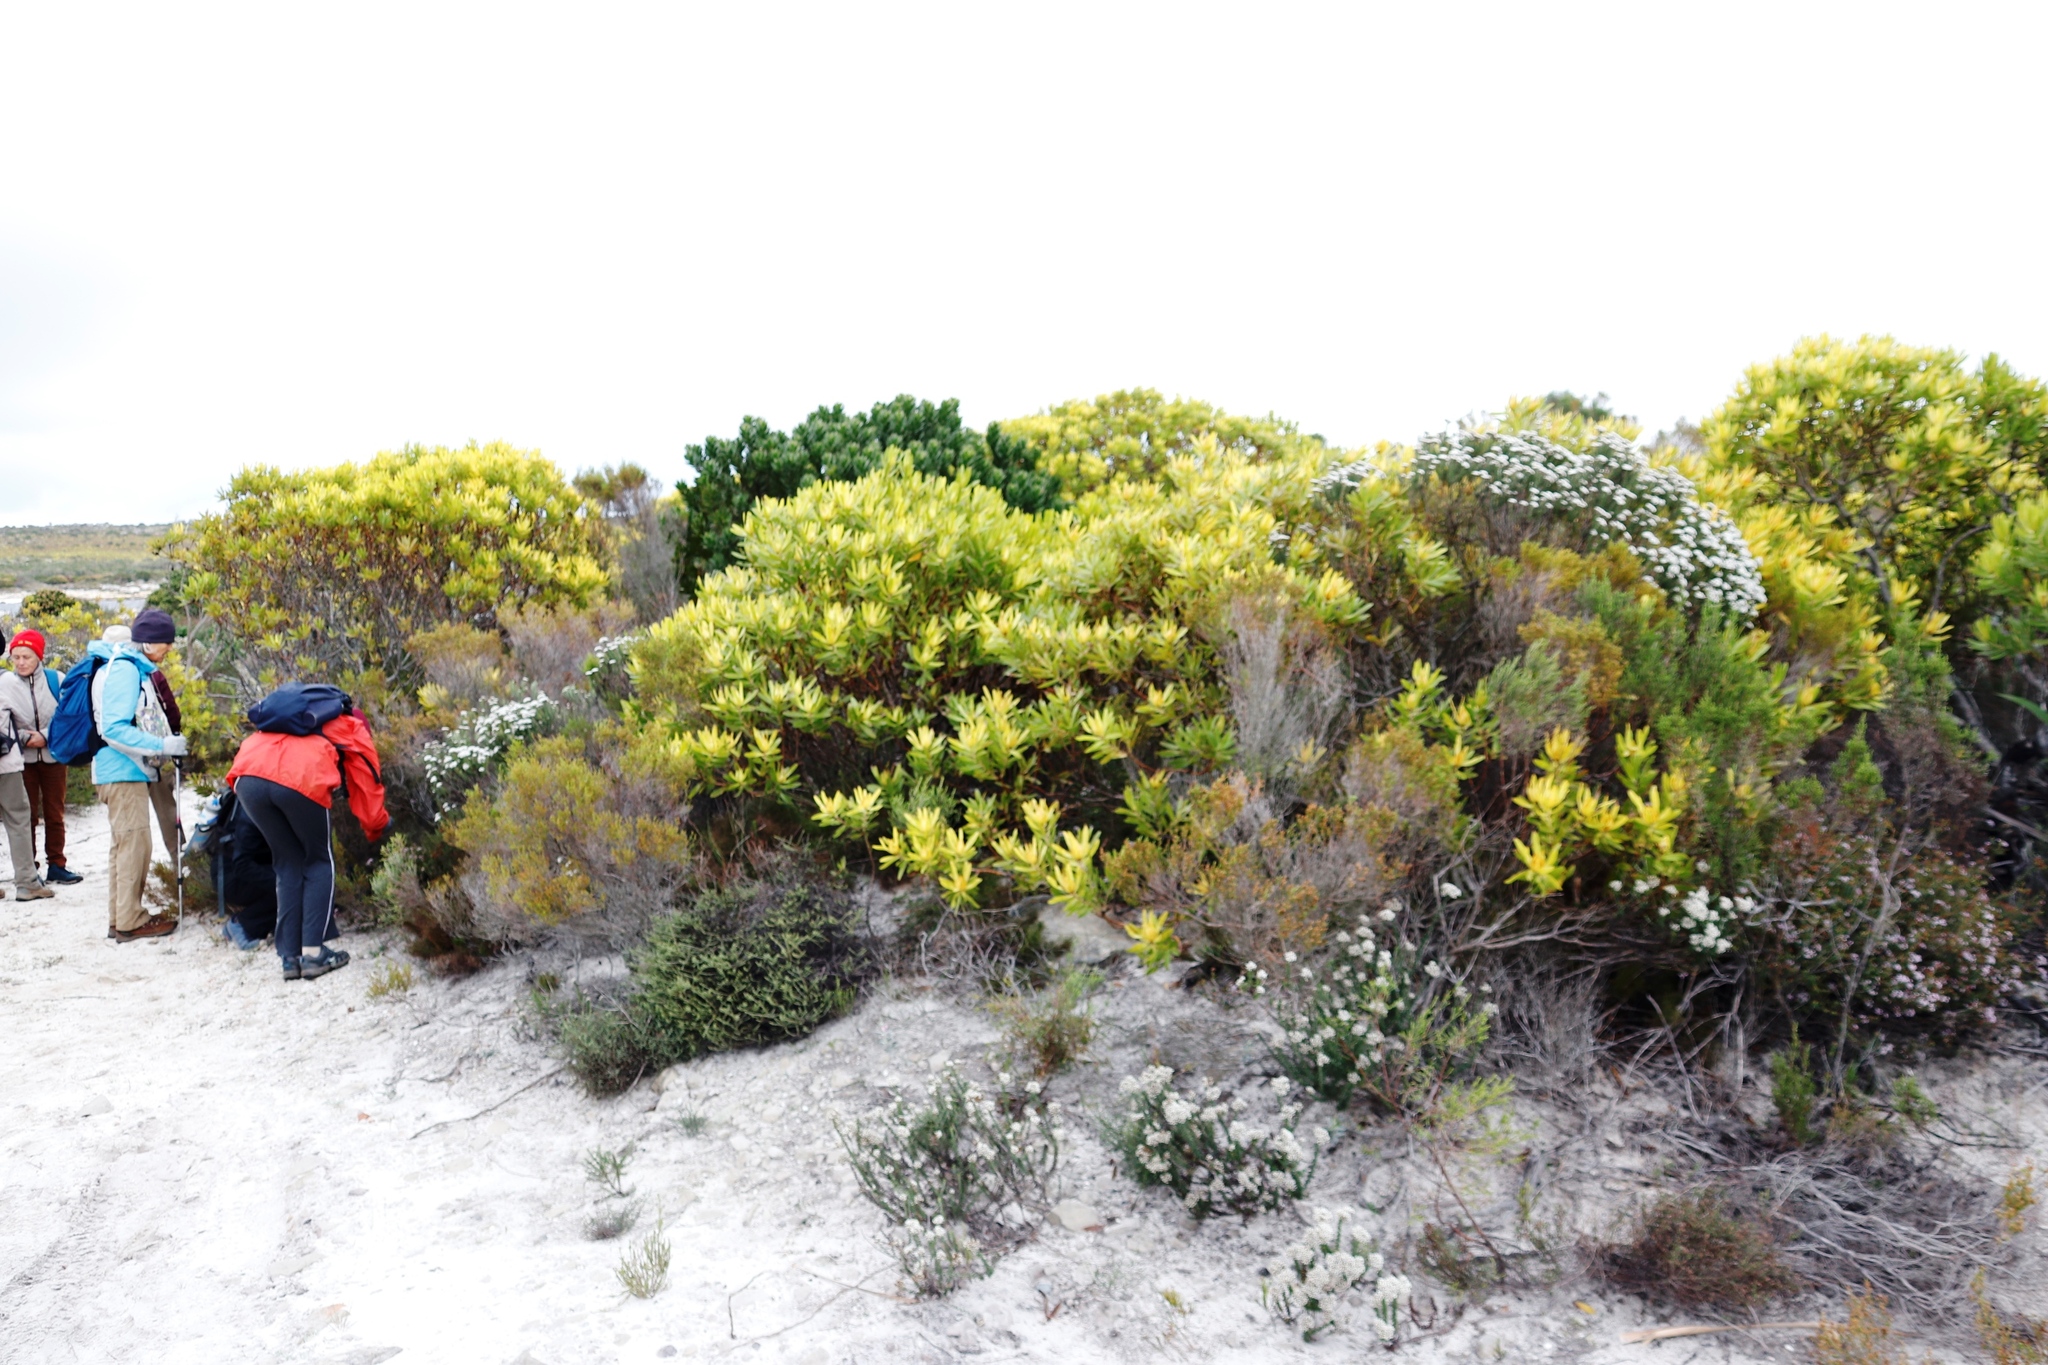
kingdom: Plantae
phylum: Tracheophyta
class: Magnoliopsida
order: Proteales
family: Proteaceae
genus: Leucadendron
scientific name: Leucadendron laureolum
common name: Golden sunshinebush
